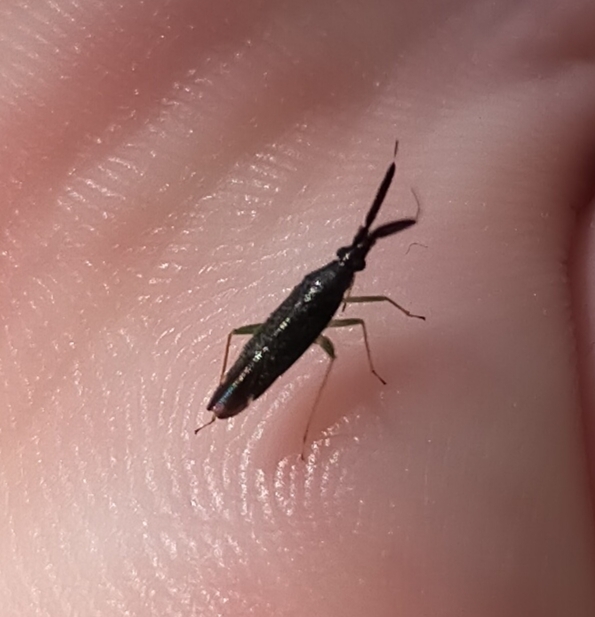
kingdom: Animalia
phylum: Arthropoda
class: Insecta
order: Hemiptera
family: Miridae
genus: Heterotoma
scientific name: Heterotoma
